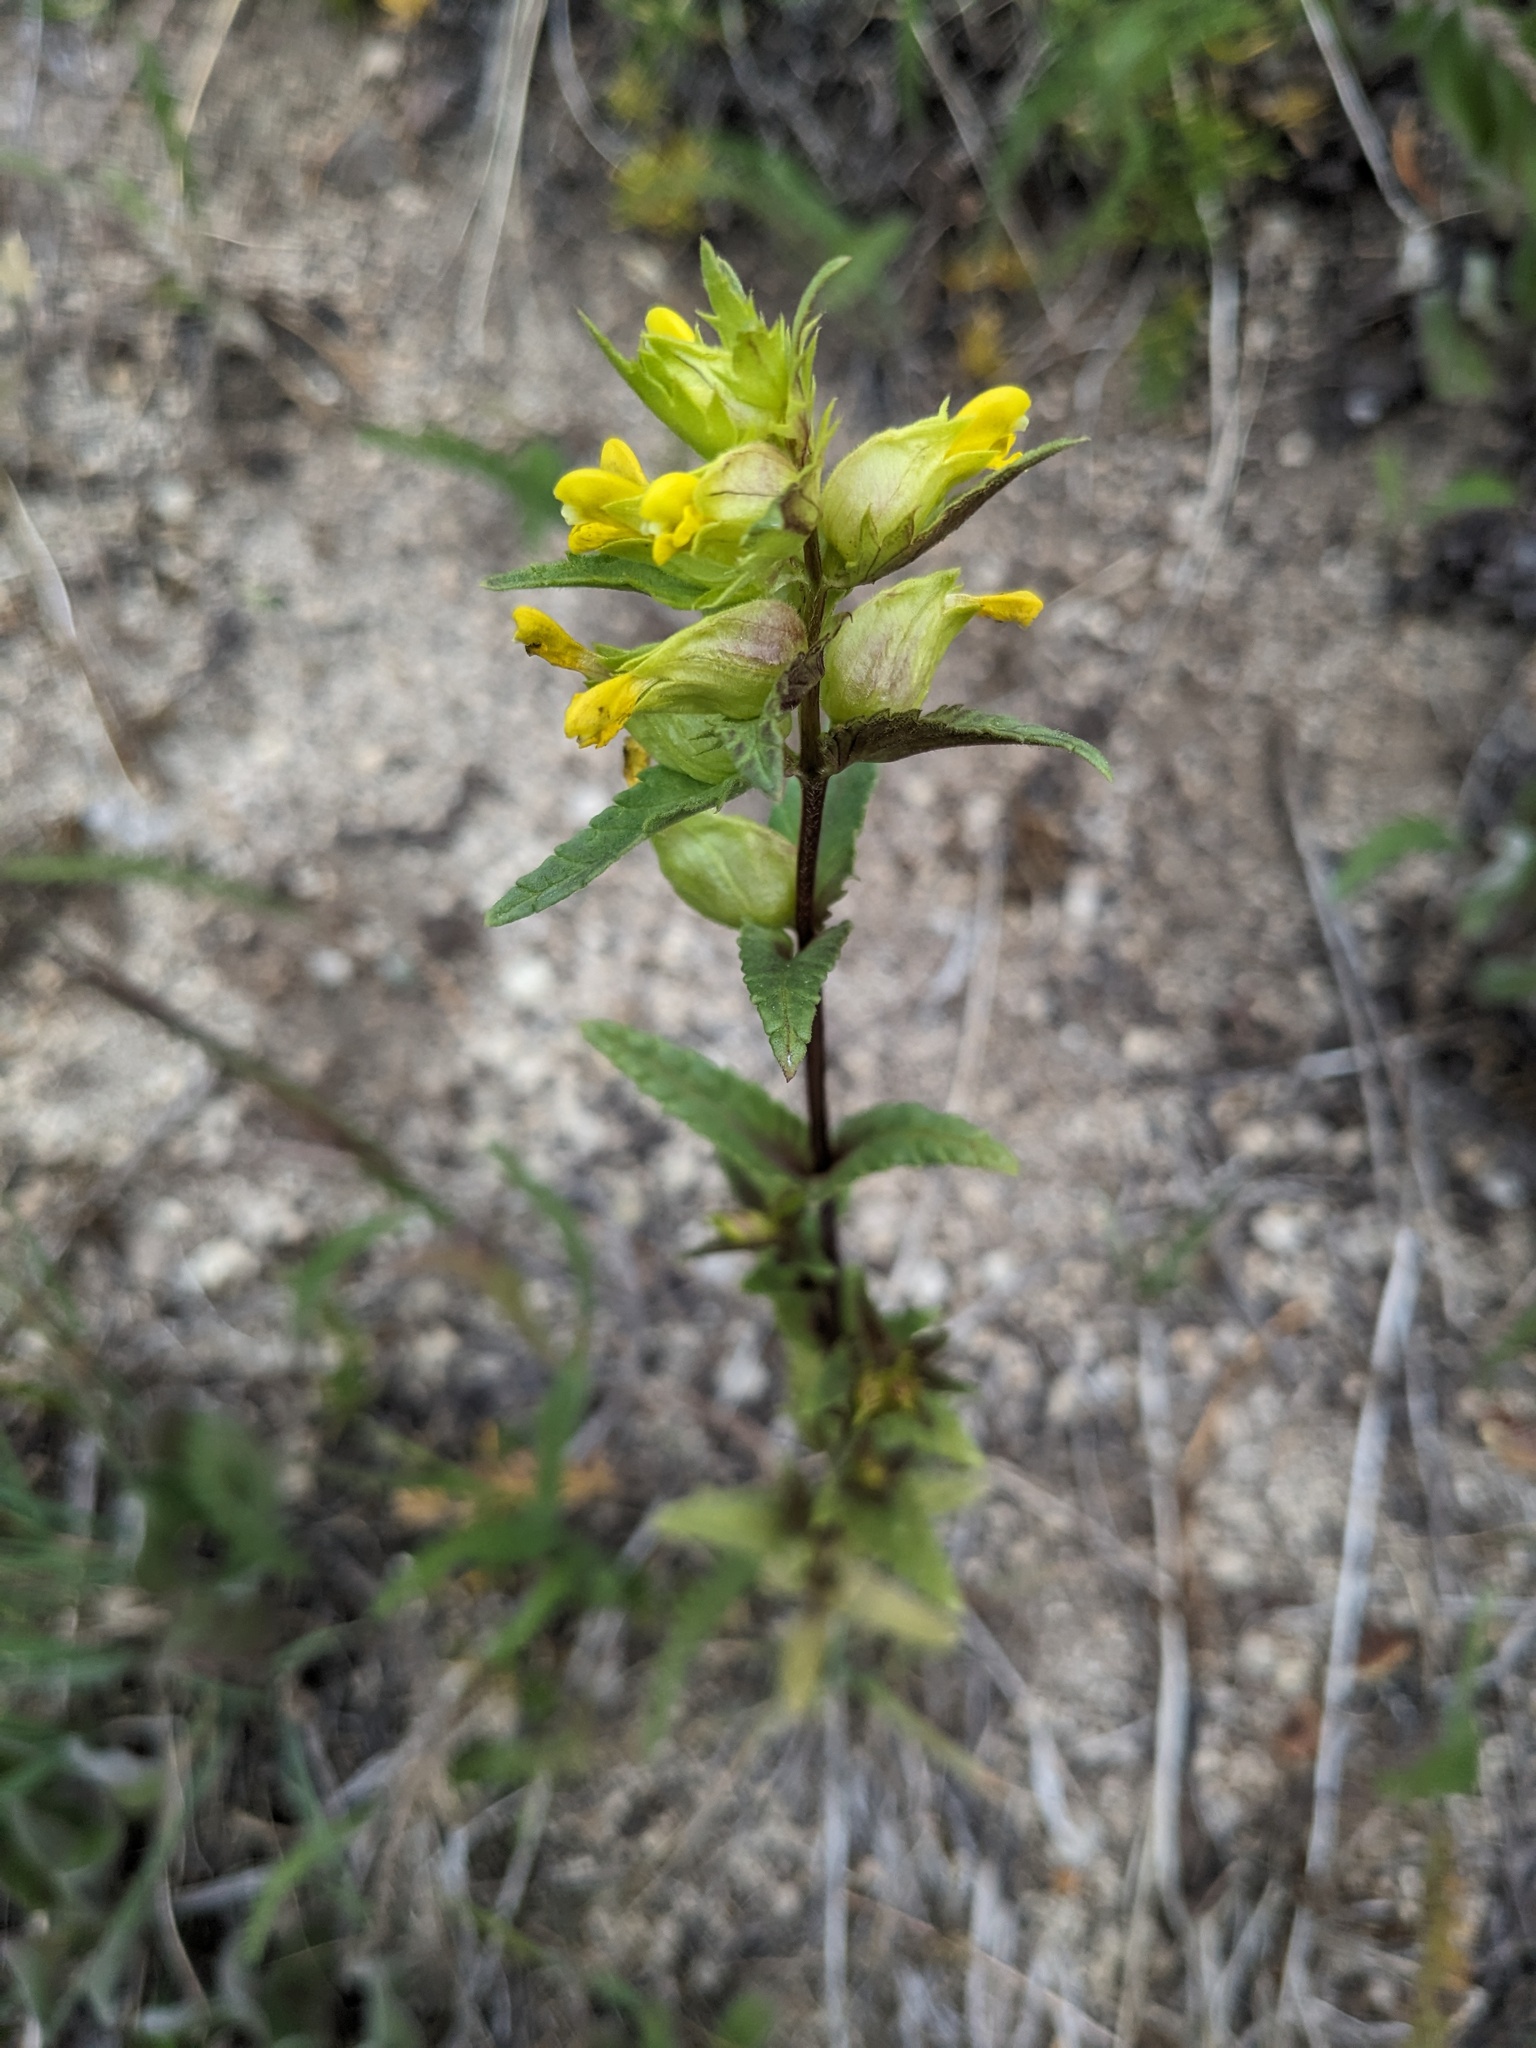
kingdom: Plantae
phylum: Tracheophyta
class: Magnoliopsida
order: Lamiales
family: Orobanchaceae
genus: Rhinanthus
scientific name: Rhinanthus groenlandicus
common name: Little yellow rattle
